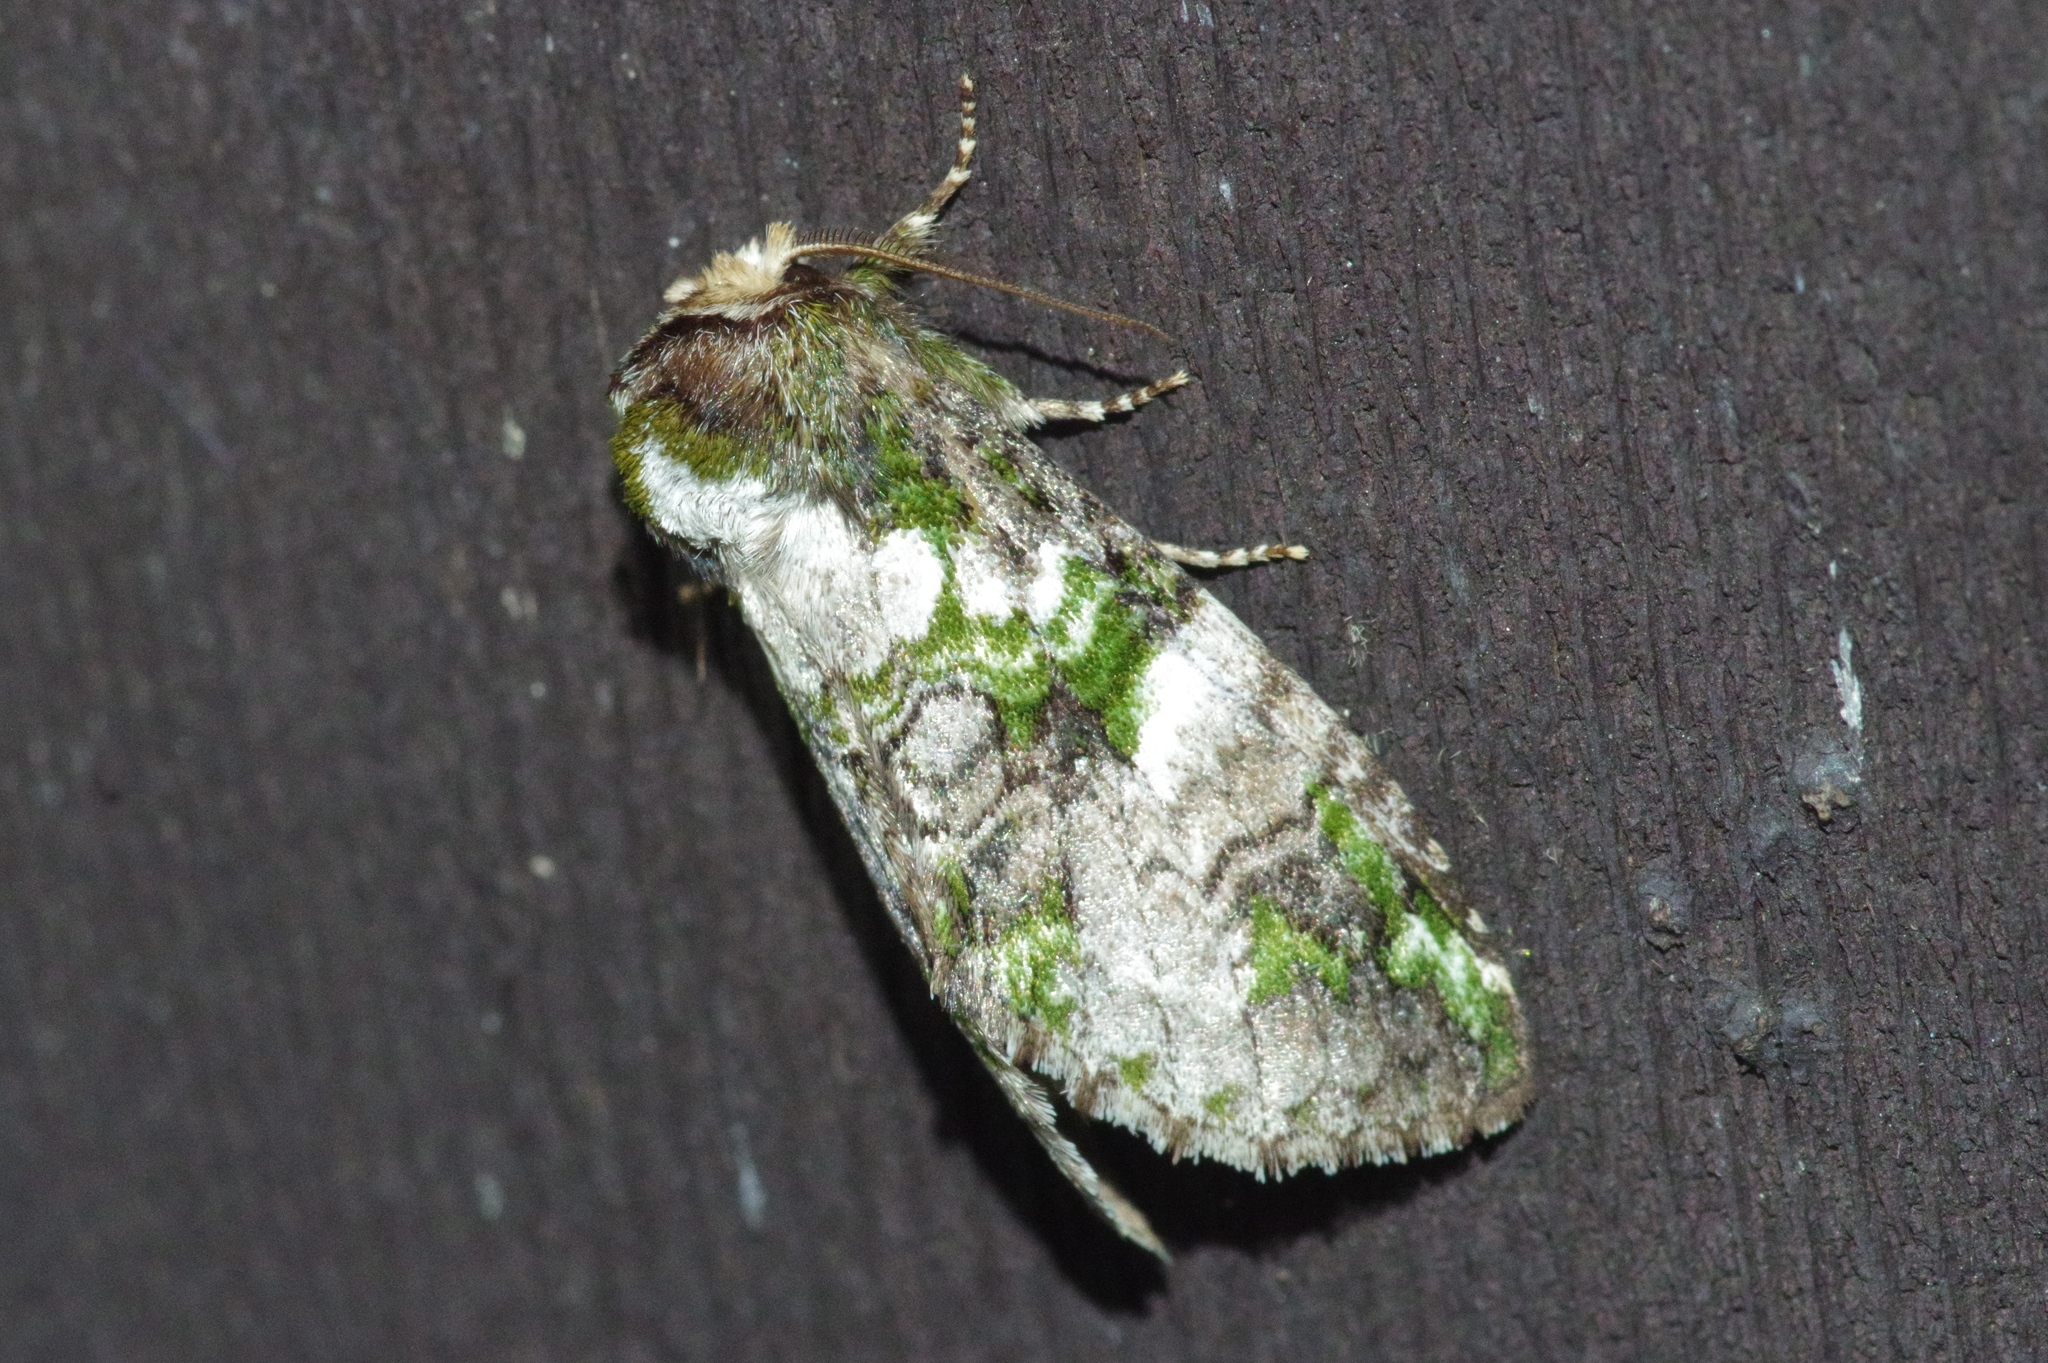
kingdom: Animalia
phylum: Arthropoda
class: Insecta
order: Lepidoptera
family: Notodontidae
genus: Ellida
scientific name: Ellida viridimixta
